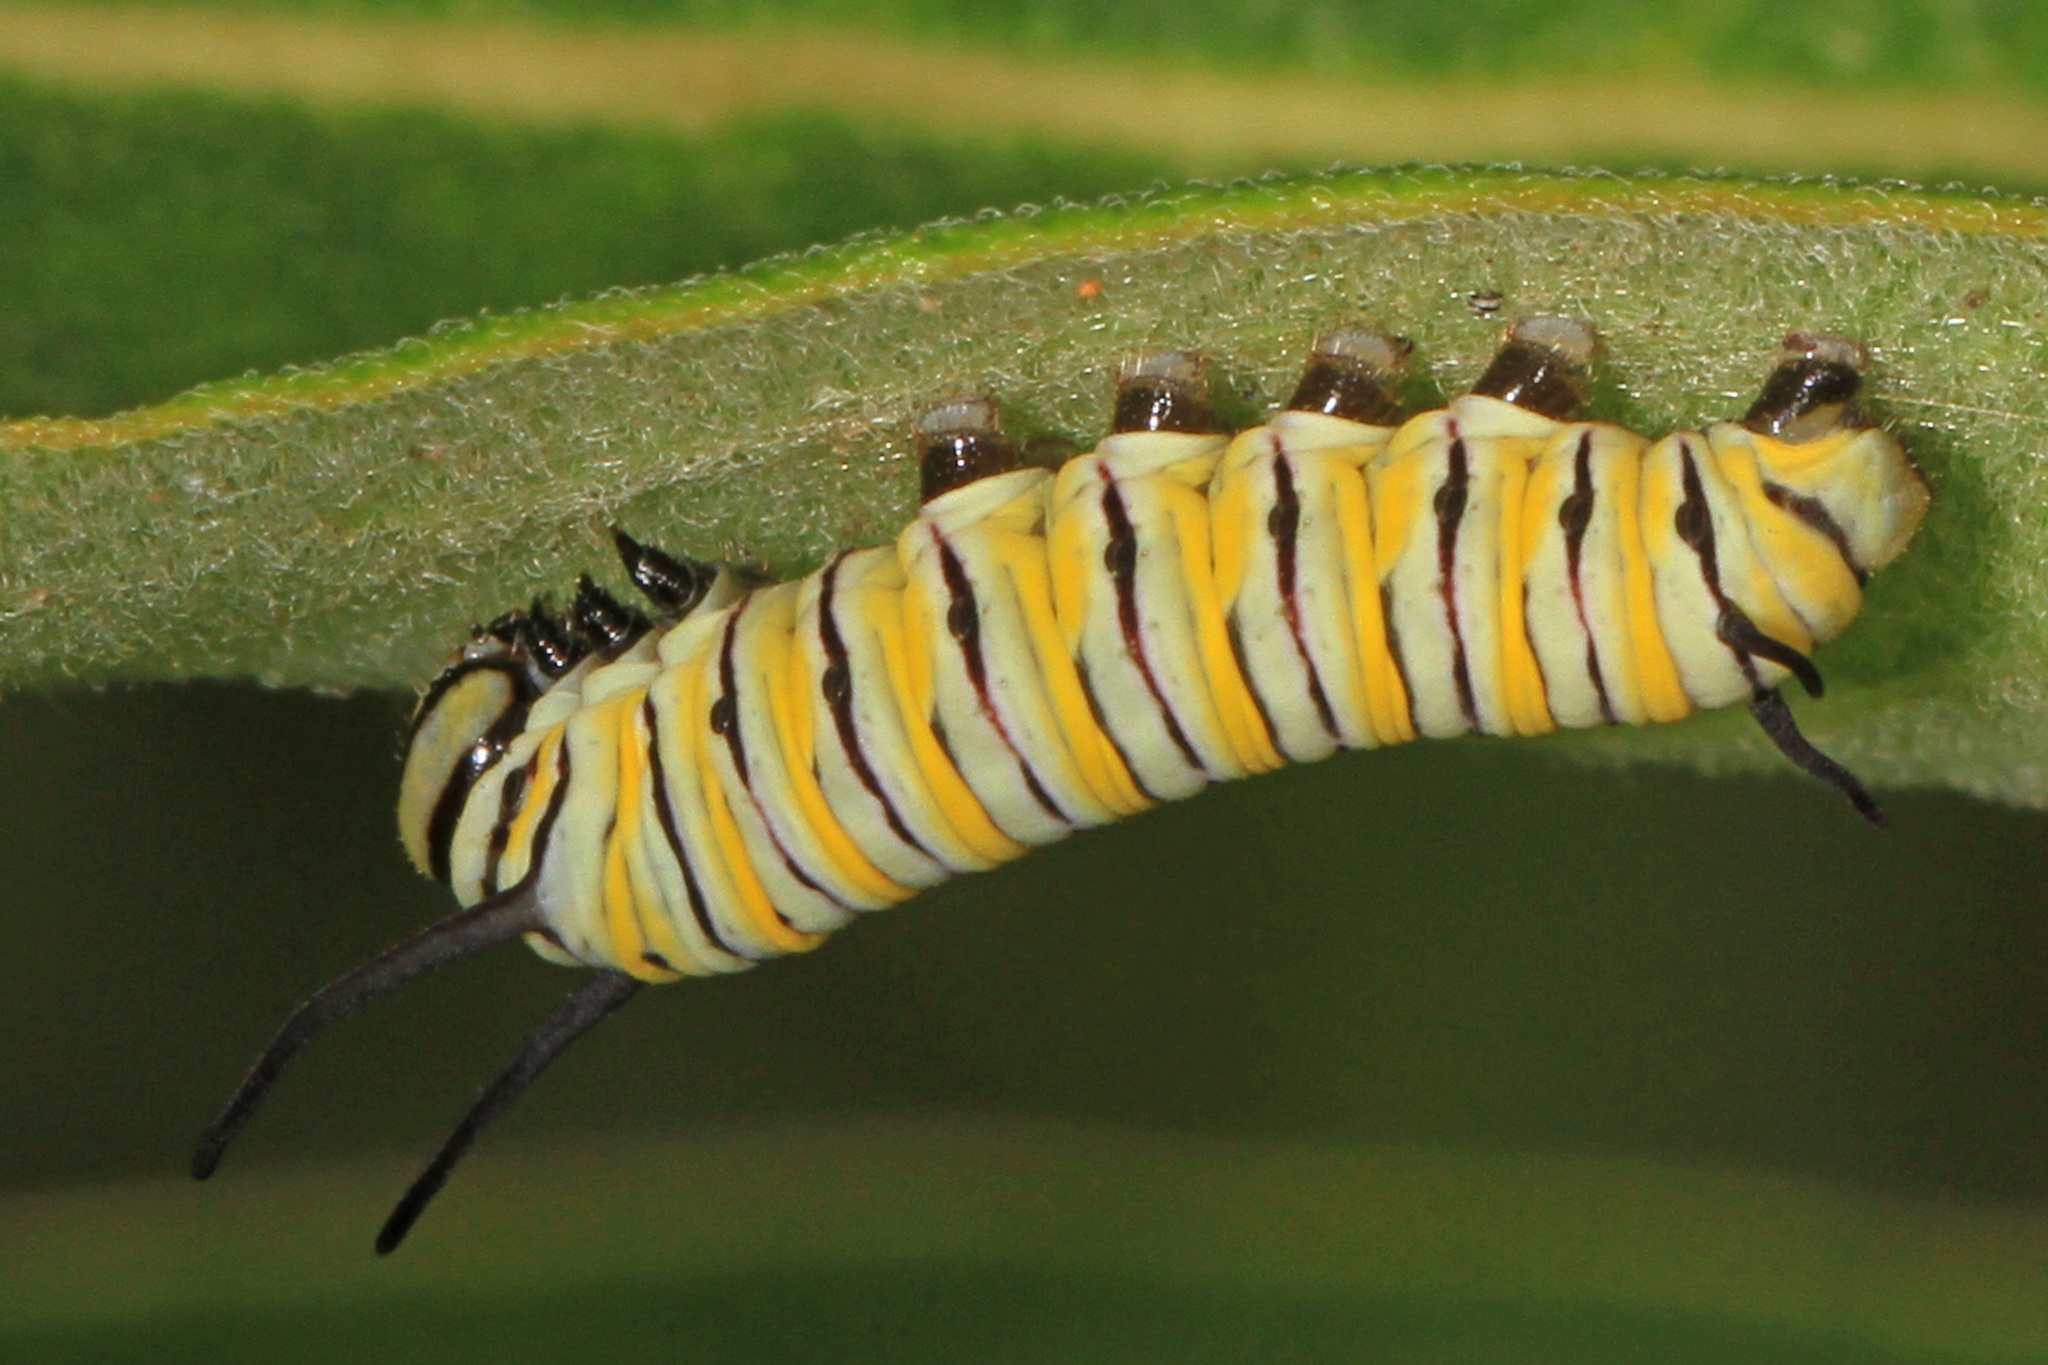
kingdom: Animalia
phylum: Arthropoda
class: Insecta
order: Lepidoptera
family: Nymphalidae
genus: Danaus
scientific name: Danaus plexippus
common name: Monarch
